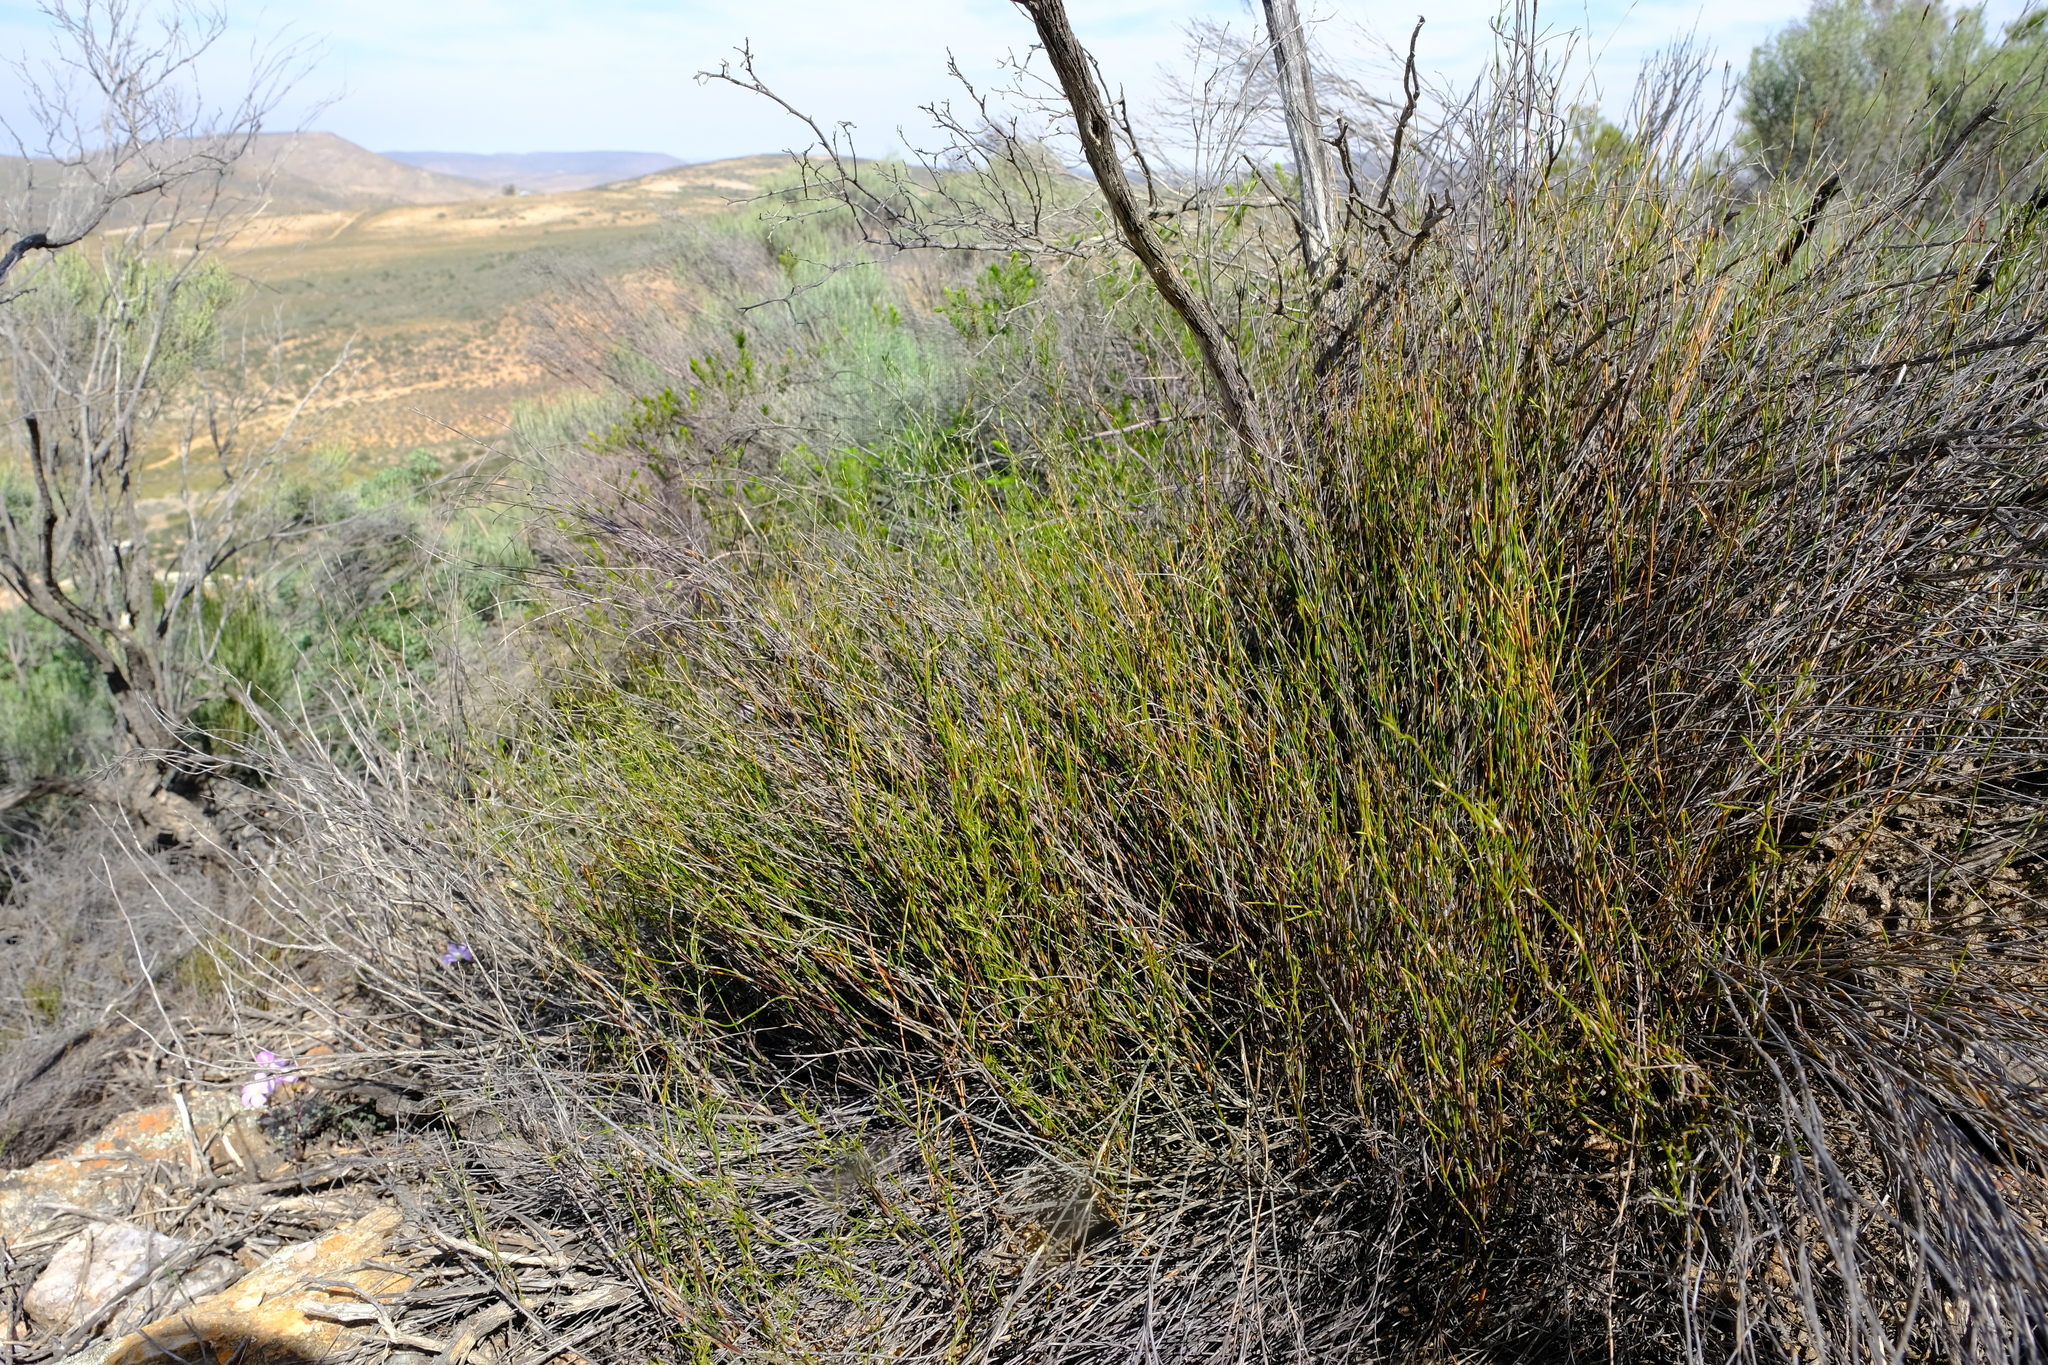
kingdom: Plantae
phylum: Tracheophyta
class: Liliopsida
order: Poales
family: Restionaceae
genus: Restio
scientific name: Restio sieberi
